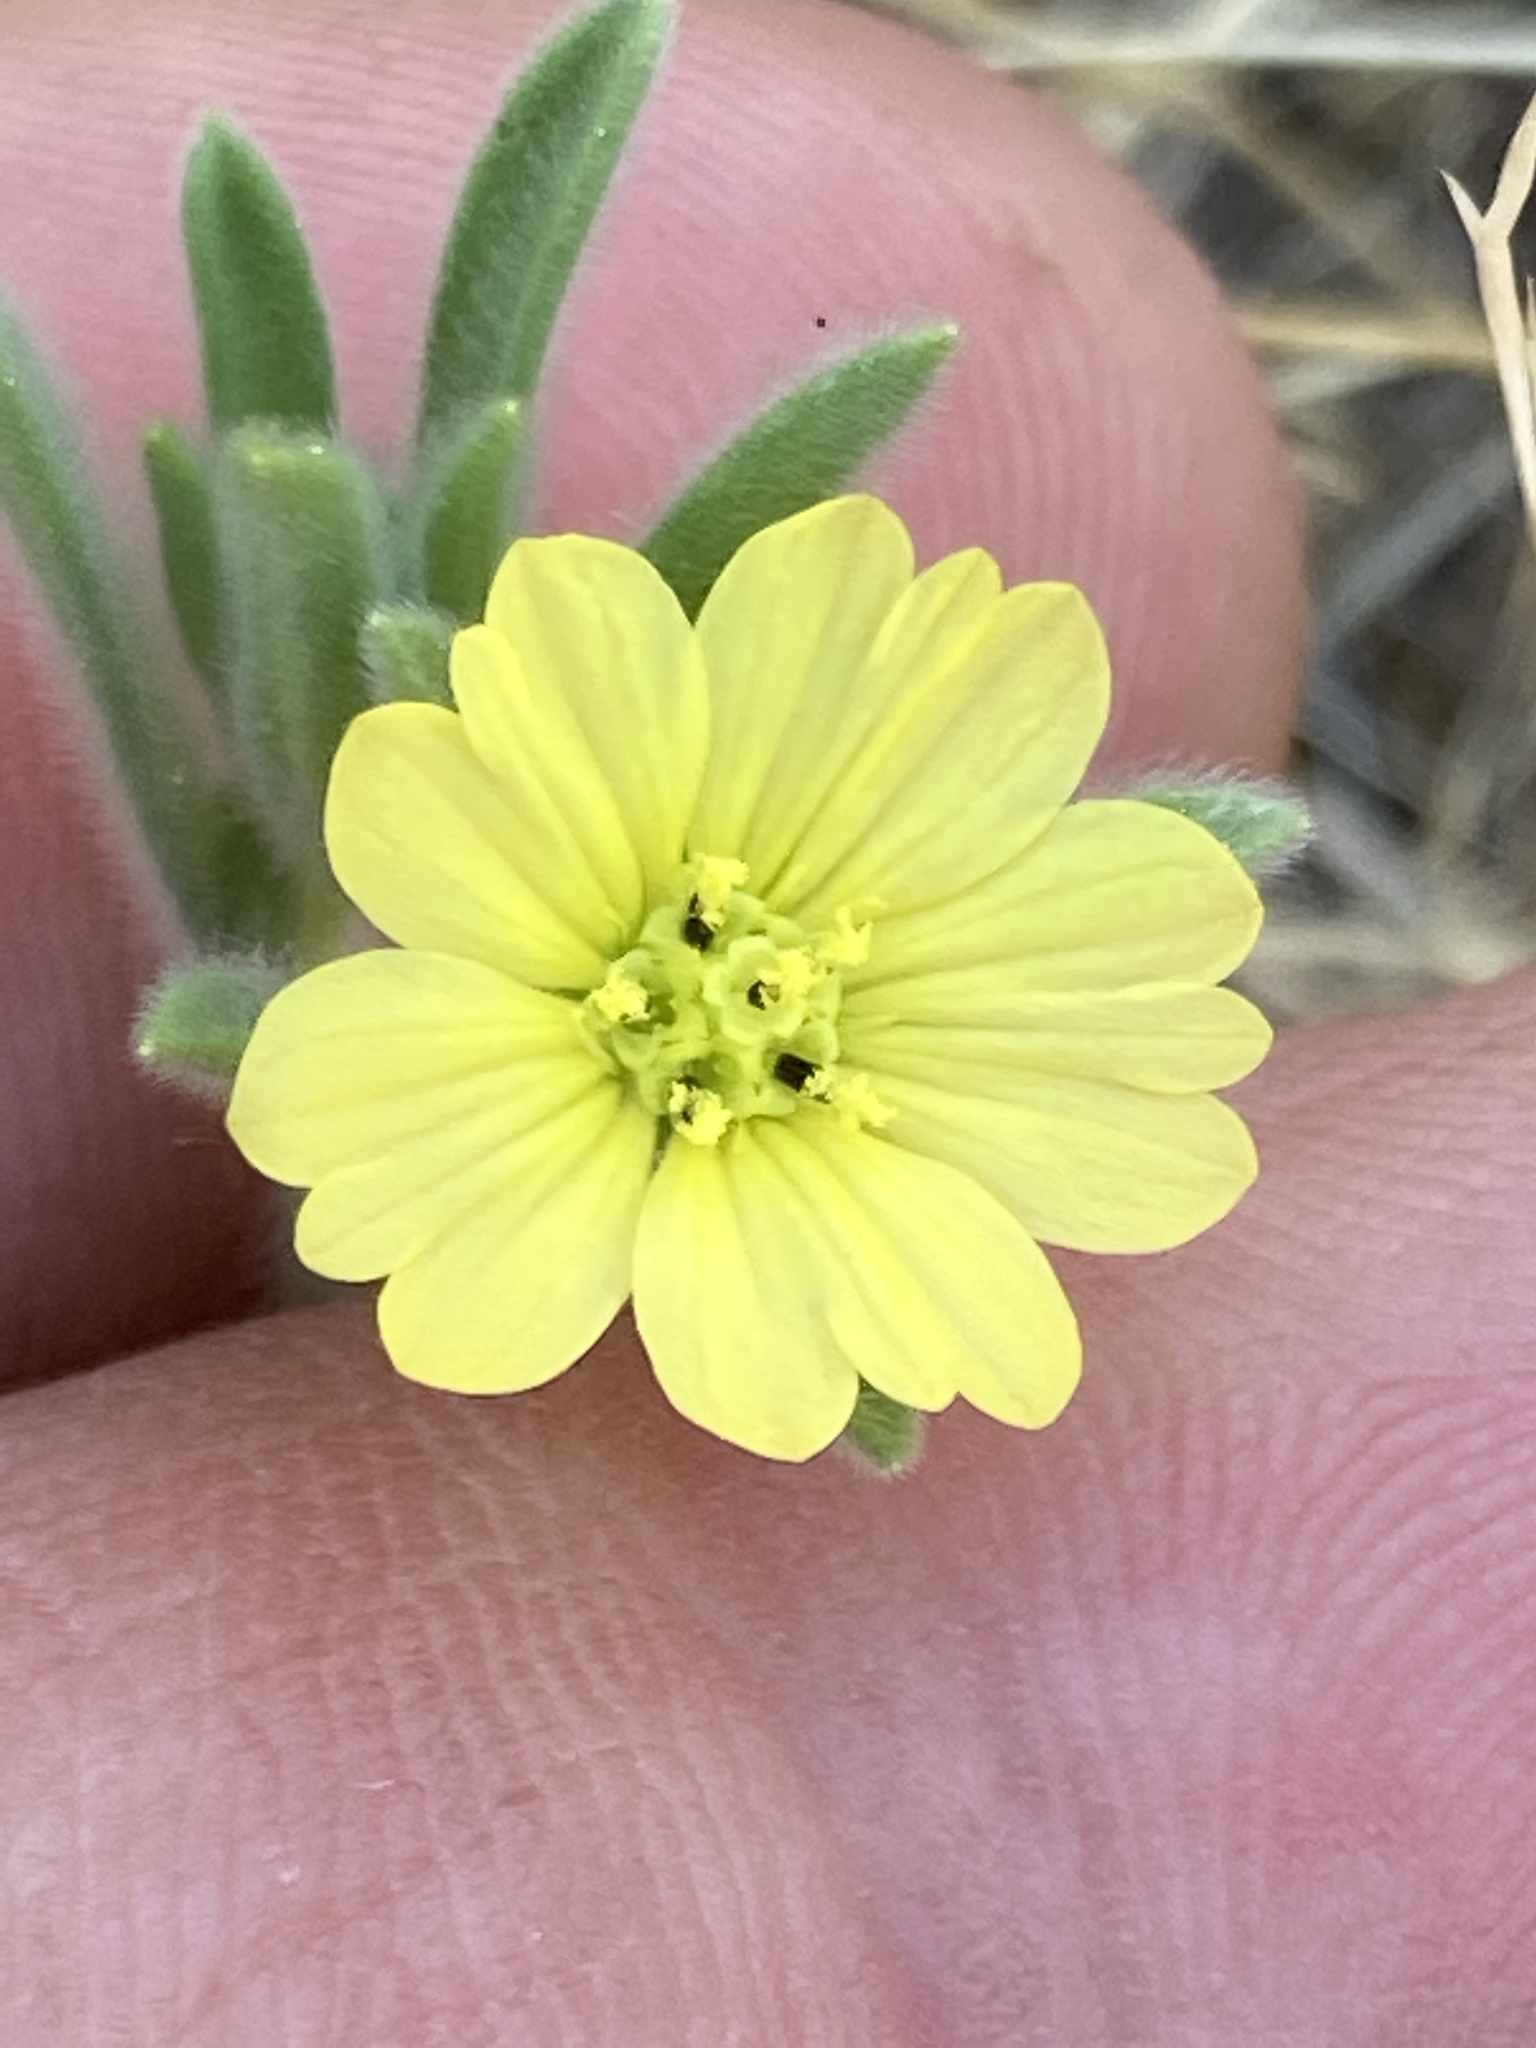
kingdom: Plantae
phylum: Tracheophyta
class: Magnoliopsida
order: Asterales
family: Asteraceae
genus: Lagophylla
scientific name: Lagophylla ramosissima
